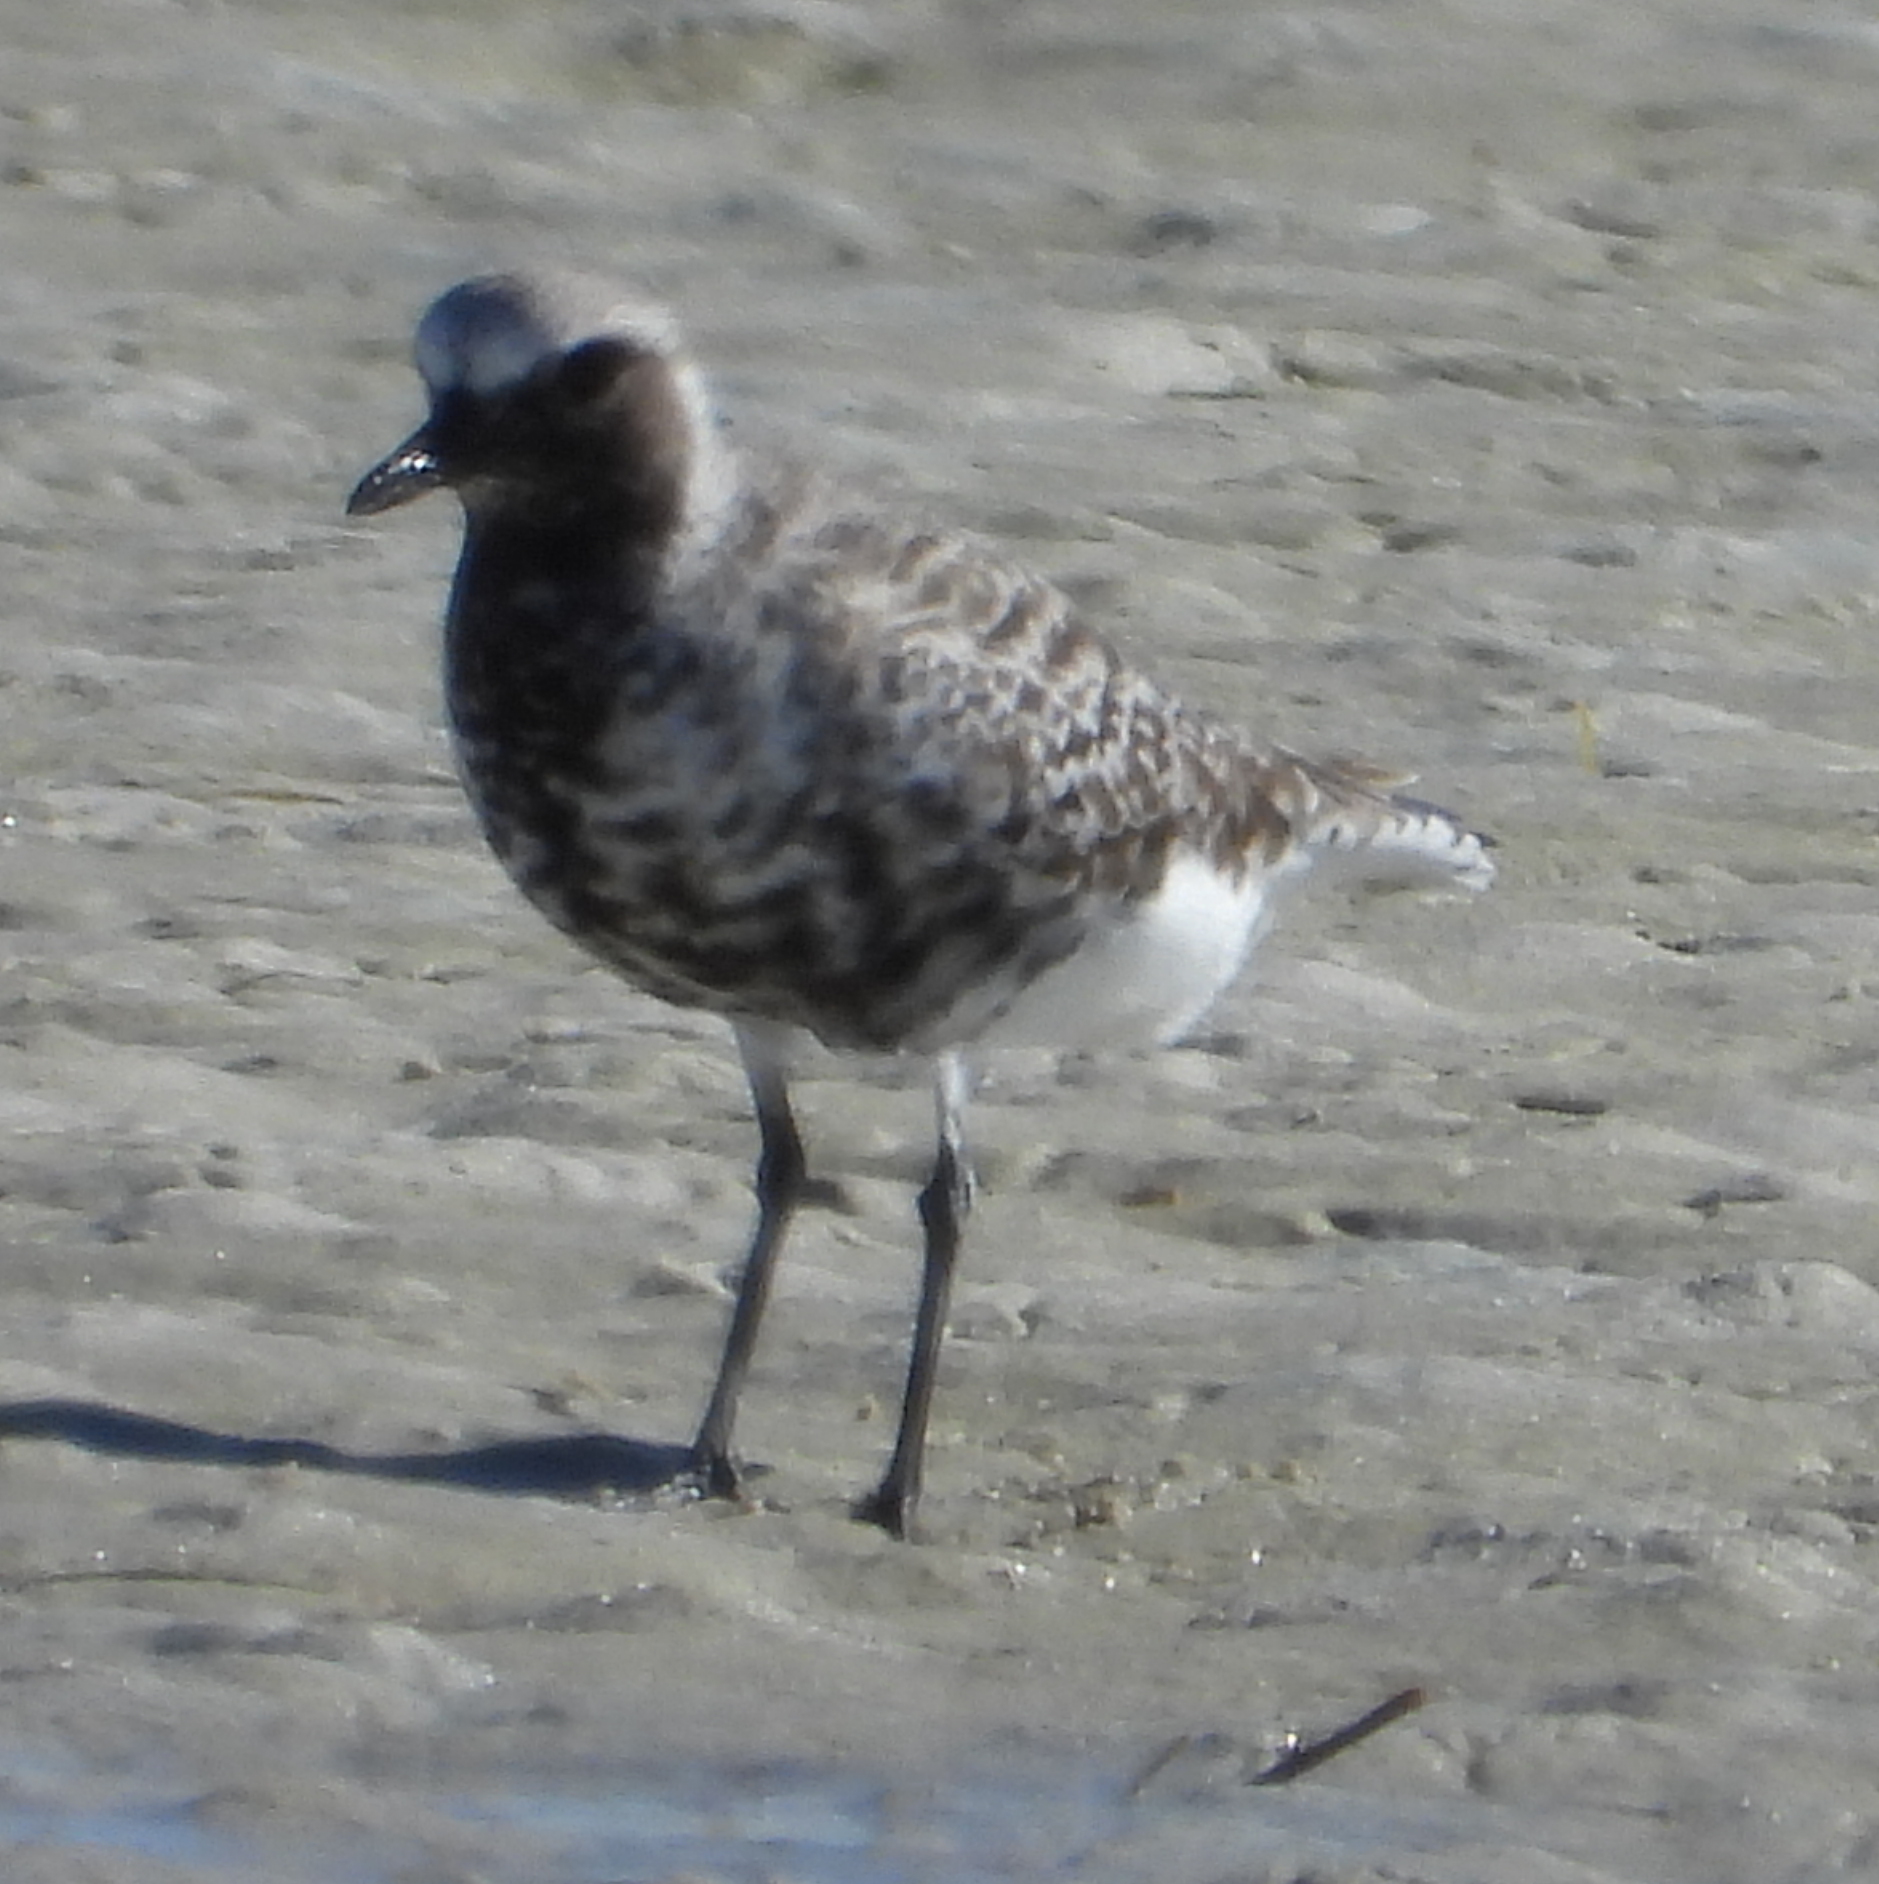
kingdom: Animalia
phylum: Chordata
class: Aves
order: Charadriiformes
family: Charadriidae
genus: Pluvialis
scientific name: Pluvialis squatarola
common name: Grey plover
